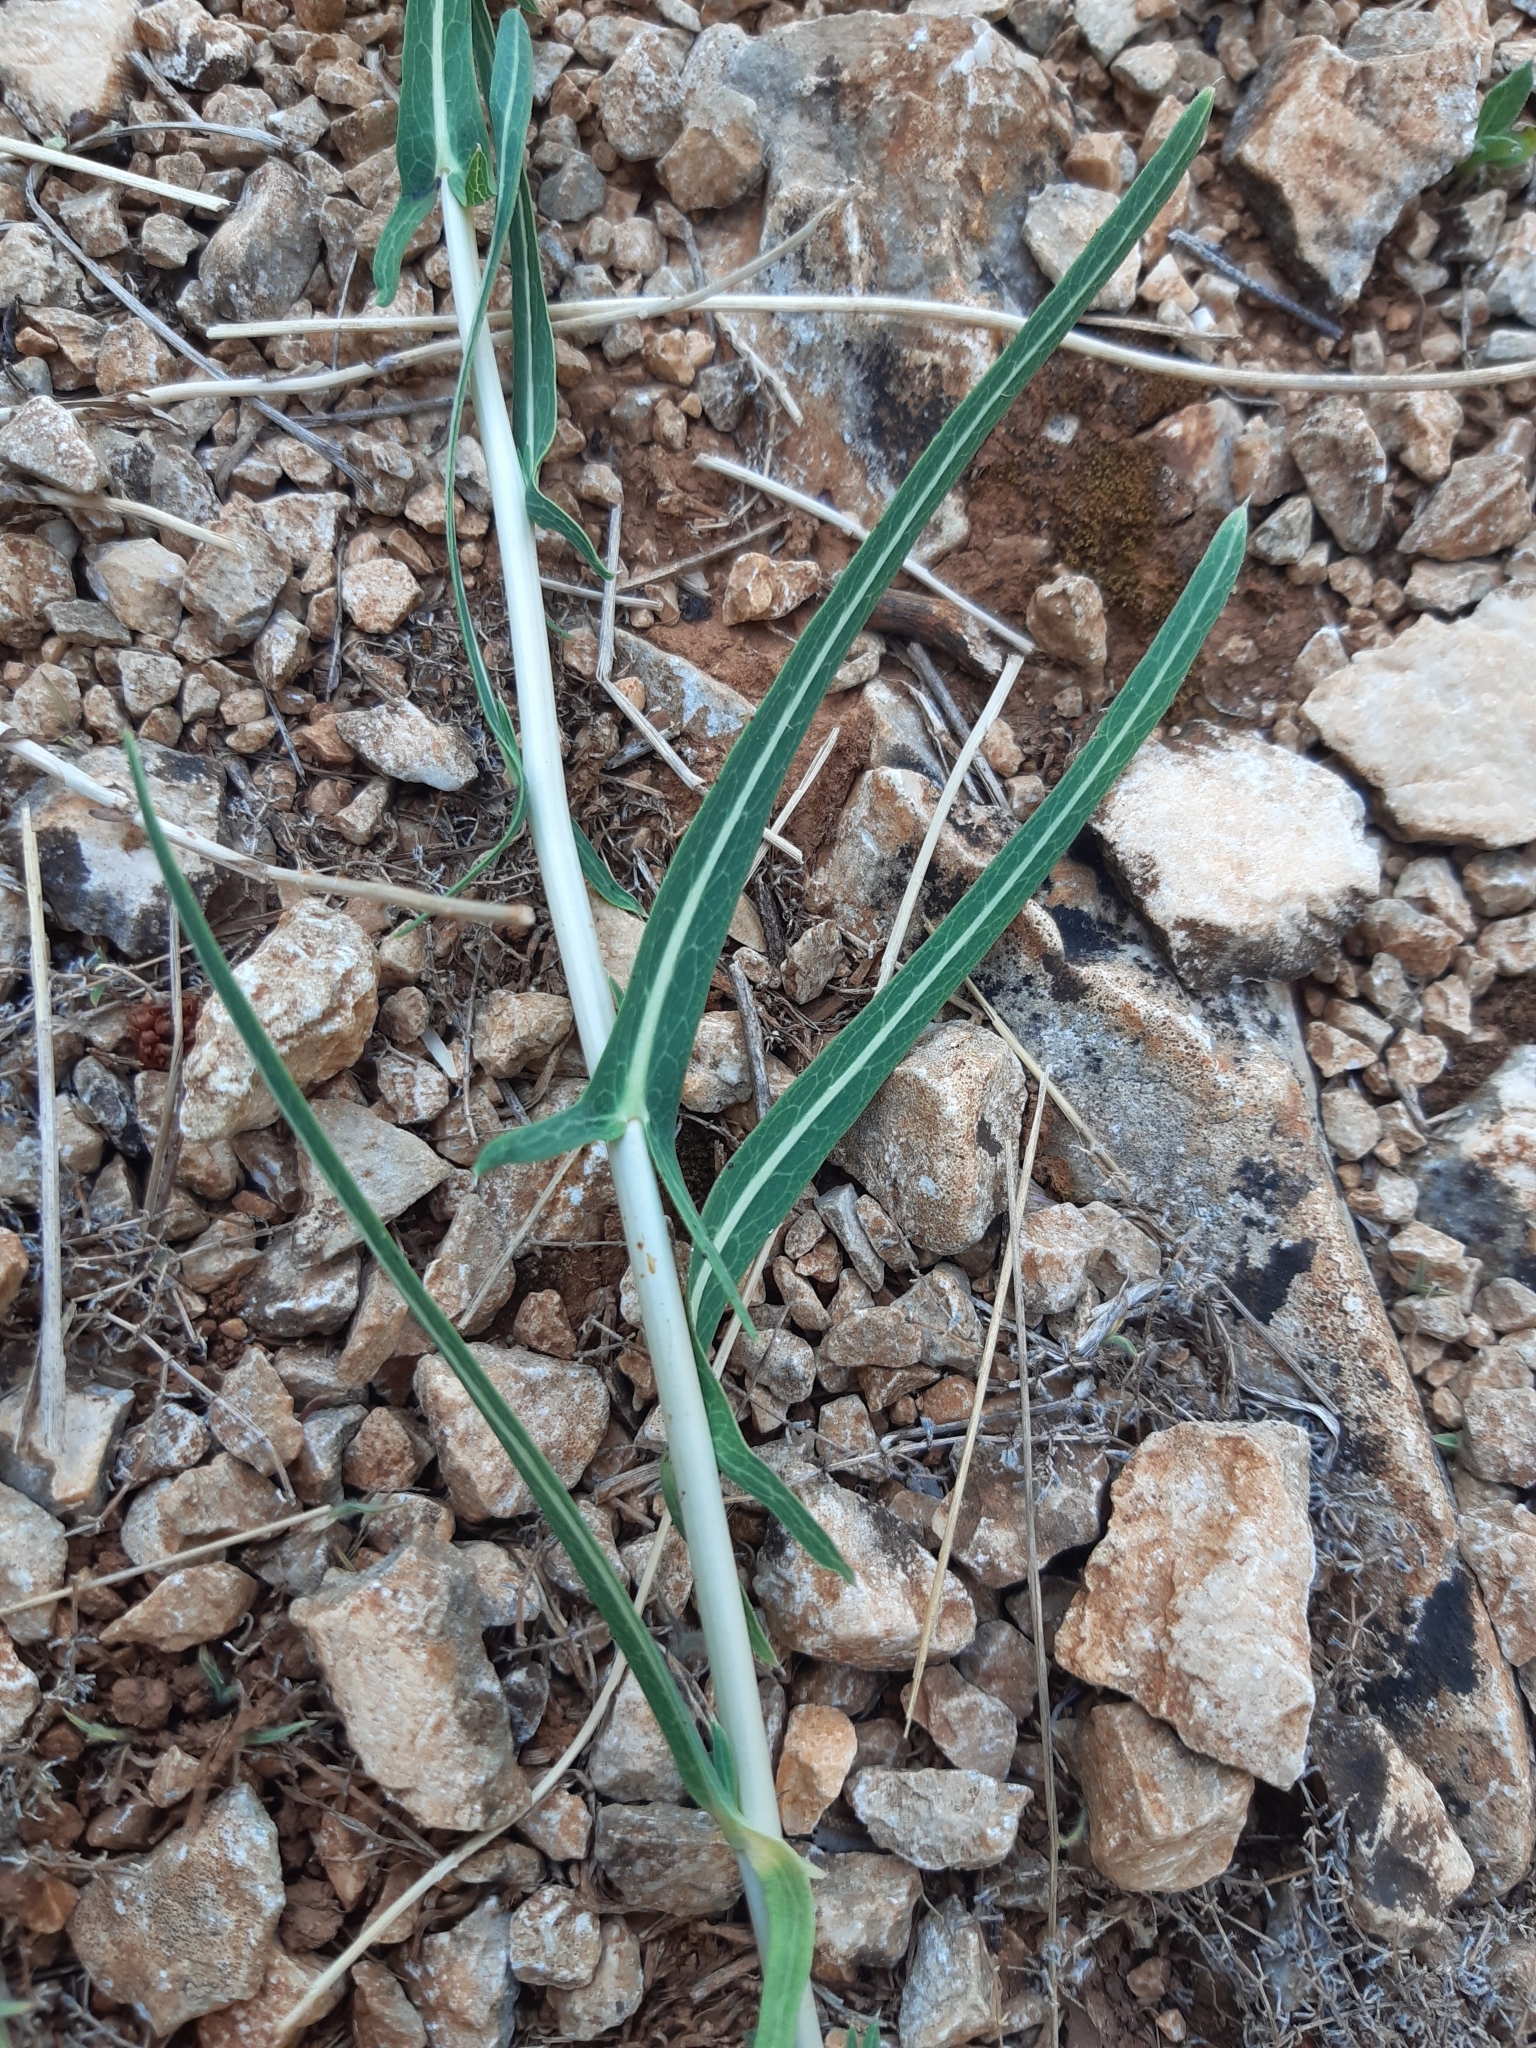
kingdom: Plantae
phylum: Tracheophyta
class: Magnoliopsida
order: Asterales
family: Asteraceae
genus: Lactuca
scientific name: Lactuca saligna
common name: Wild lettuce
